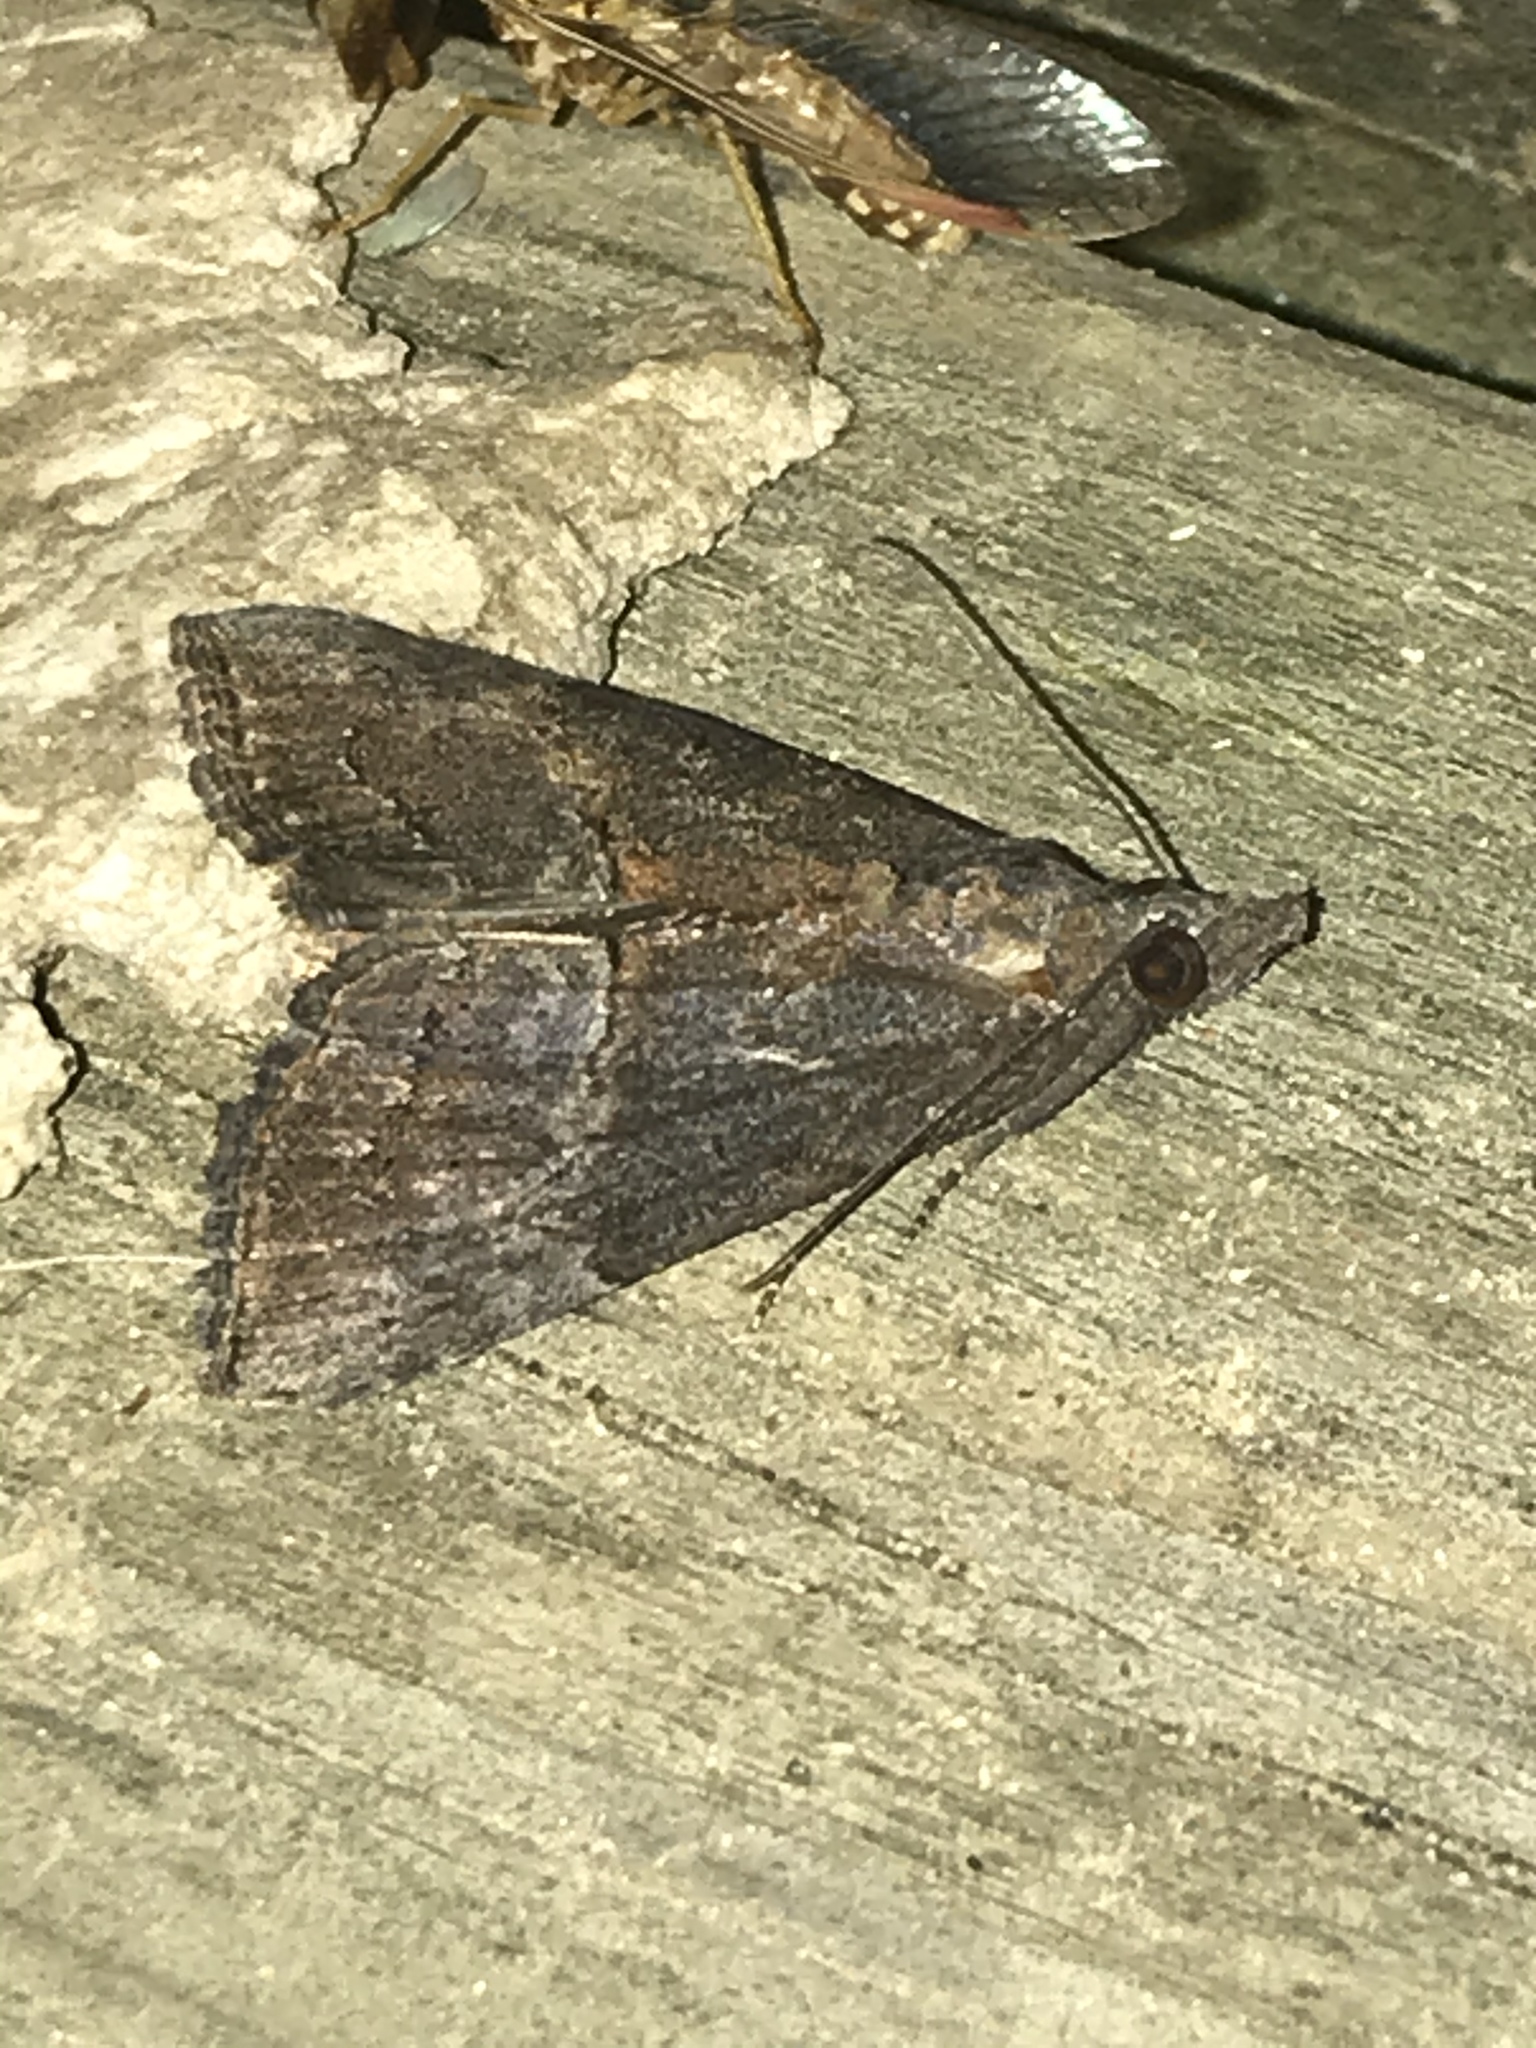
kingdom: Animalia
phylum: Arthropoda
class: Insecta
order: Lepidoptera
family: Erebidae
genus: Hypena
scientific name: Hypena scabra
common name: Green cloverworm
